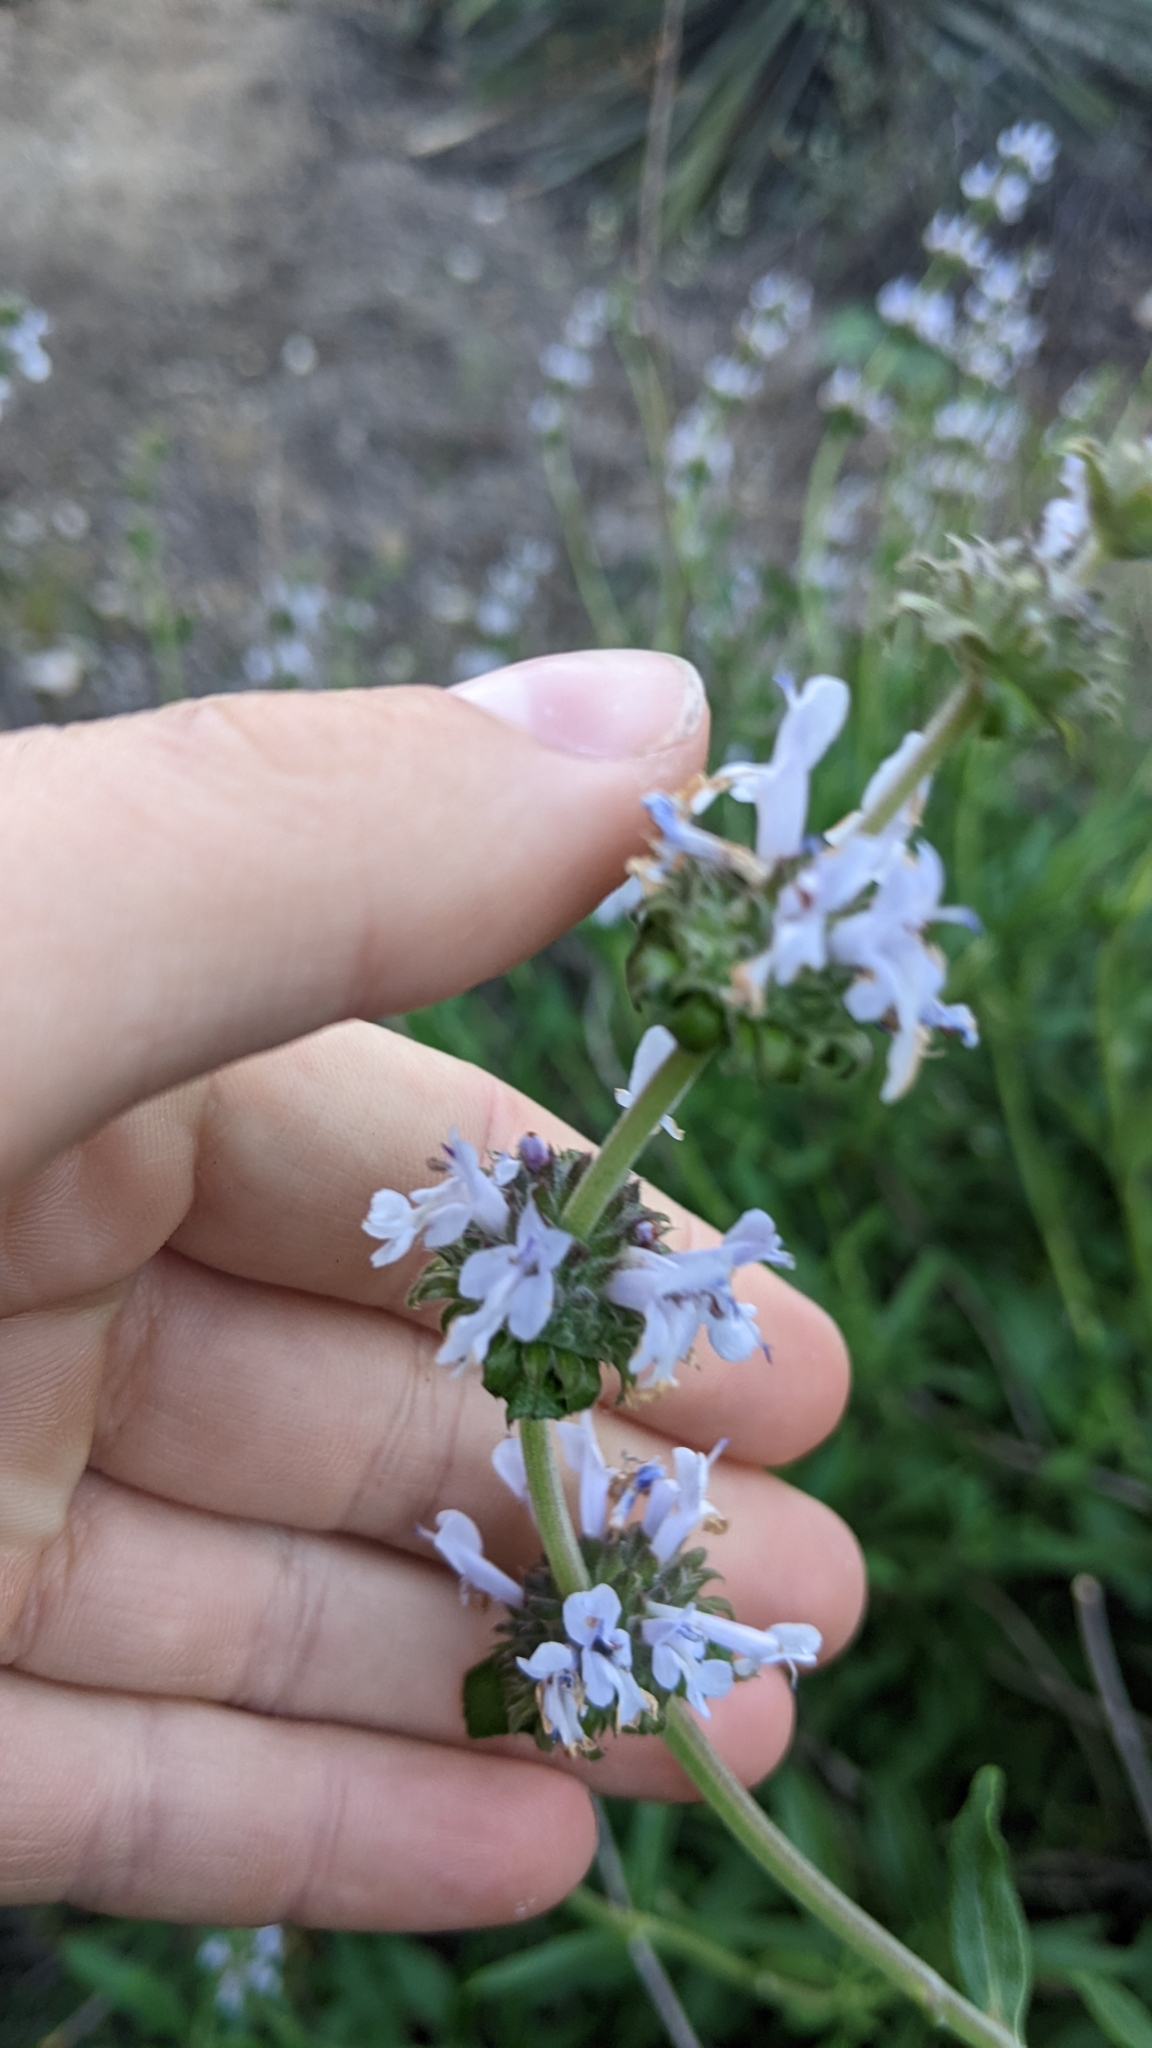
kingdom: Plantae
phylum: Tracheophyta
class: Magnoliopsida
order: Lamiales
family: Lamiaceae
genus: Salvia
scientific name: Salvia mellifera
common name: Black sage
